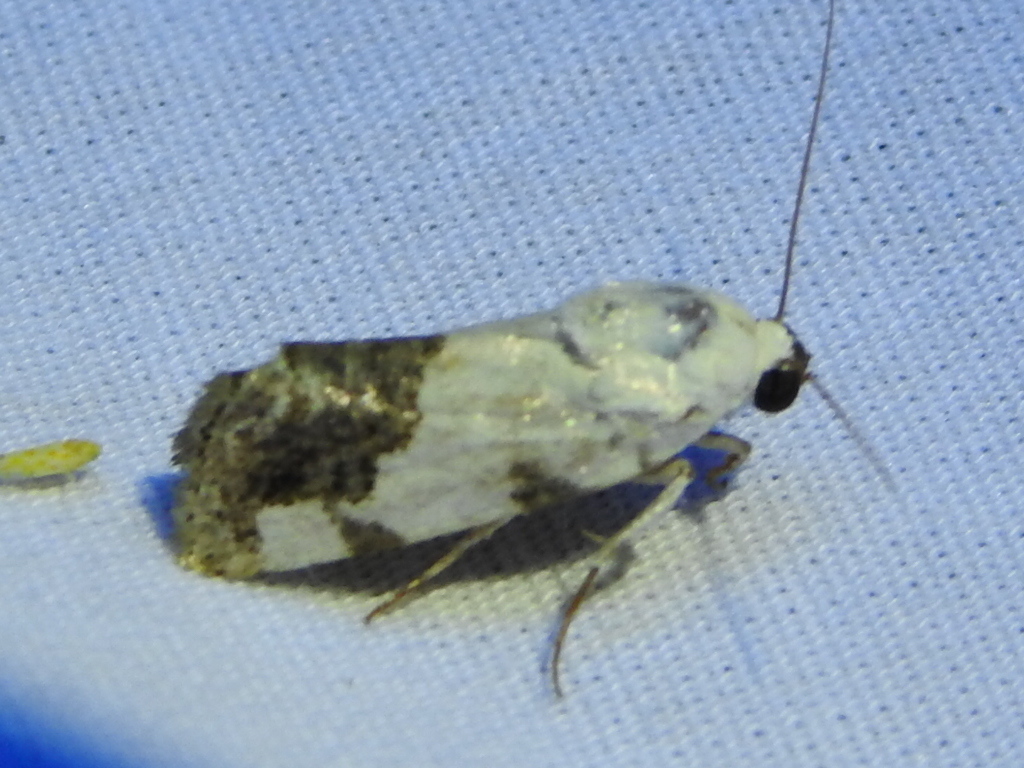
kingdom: Animalia
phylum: Arthropoda
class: Insecta
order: Lepidoptera
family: Noctuidae
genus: Acontia
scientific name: Acontia quadriplaga
